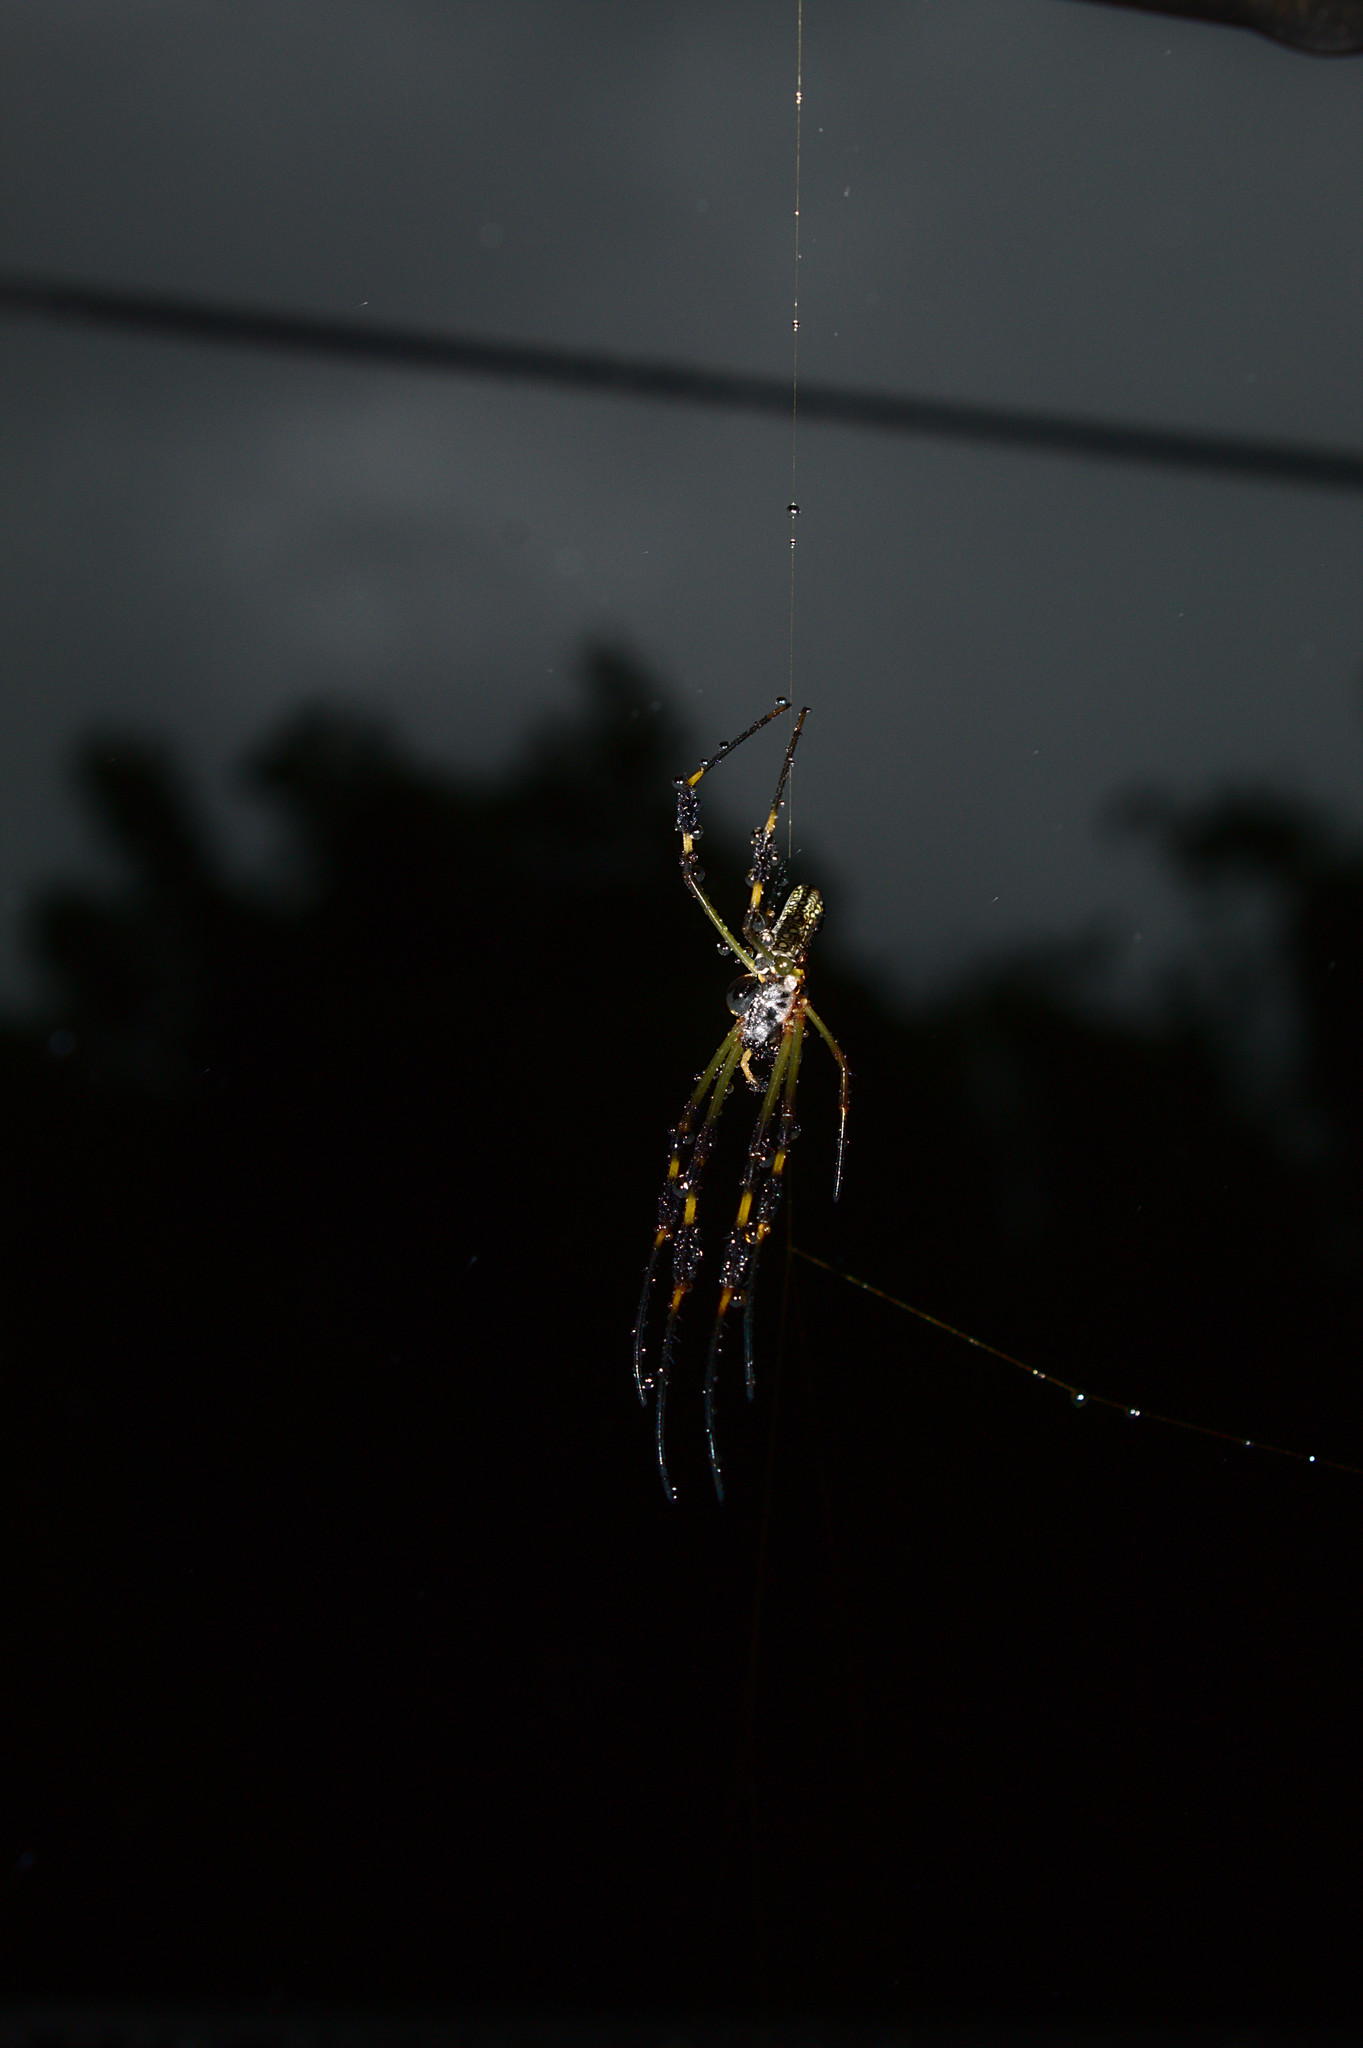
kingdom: Animalia
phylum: Arthropoda
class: Arachnida
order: Araneae
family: Araneidae
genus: Trichonephila
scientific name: Trichonephila clavipes
